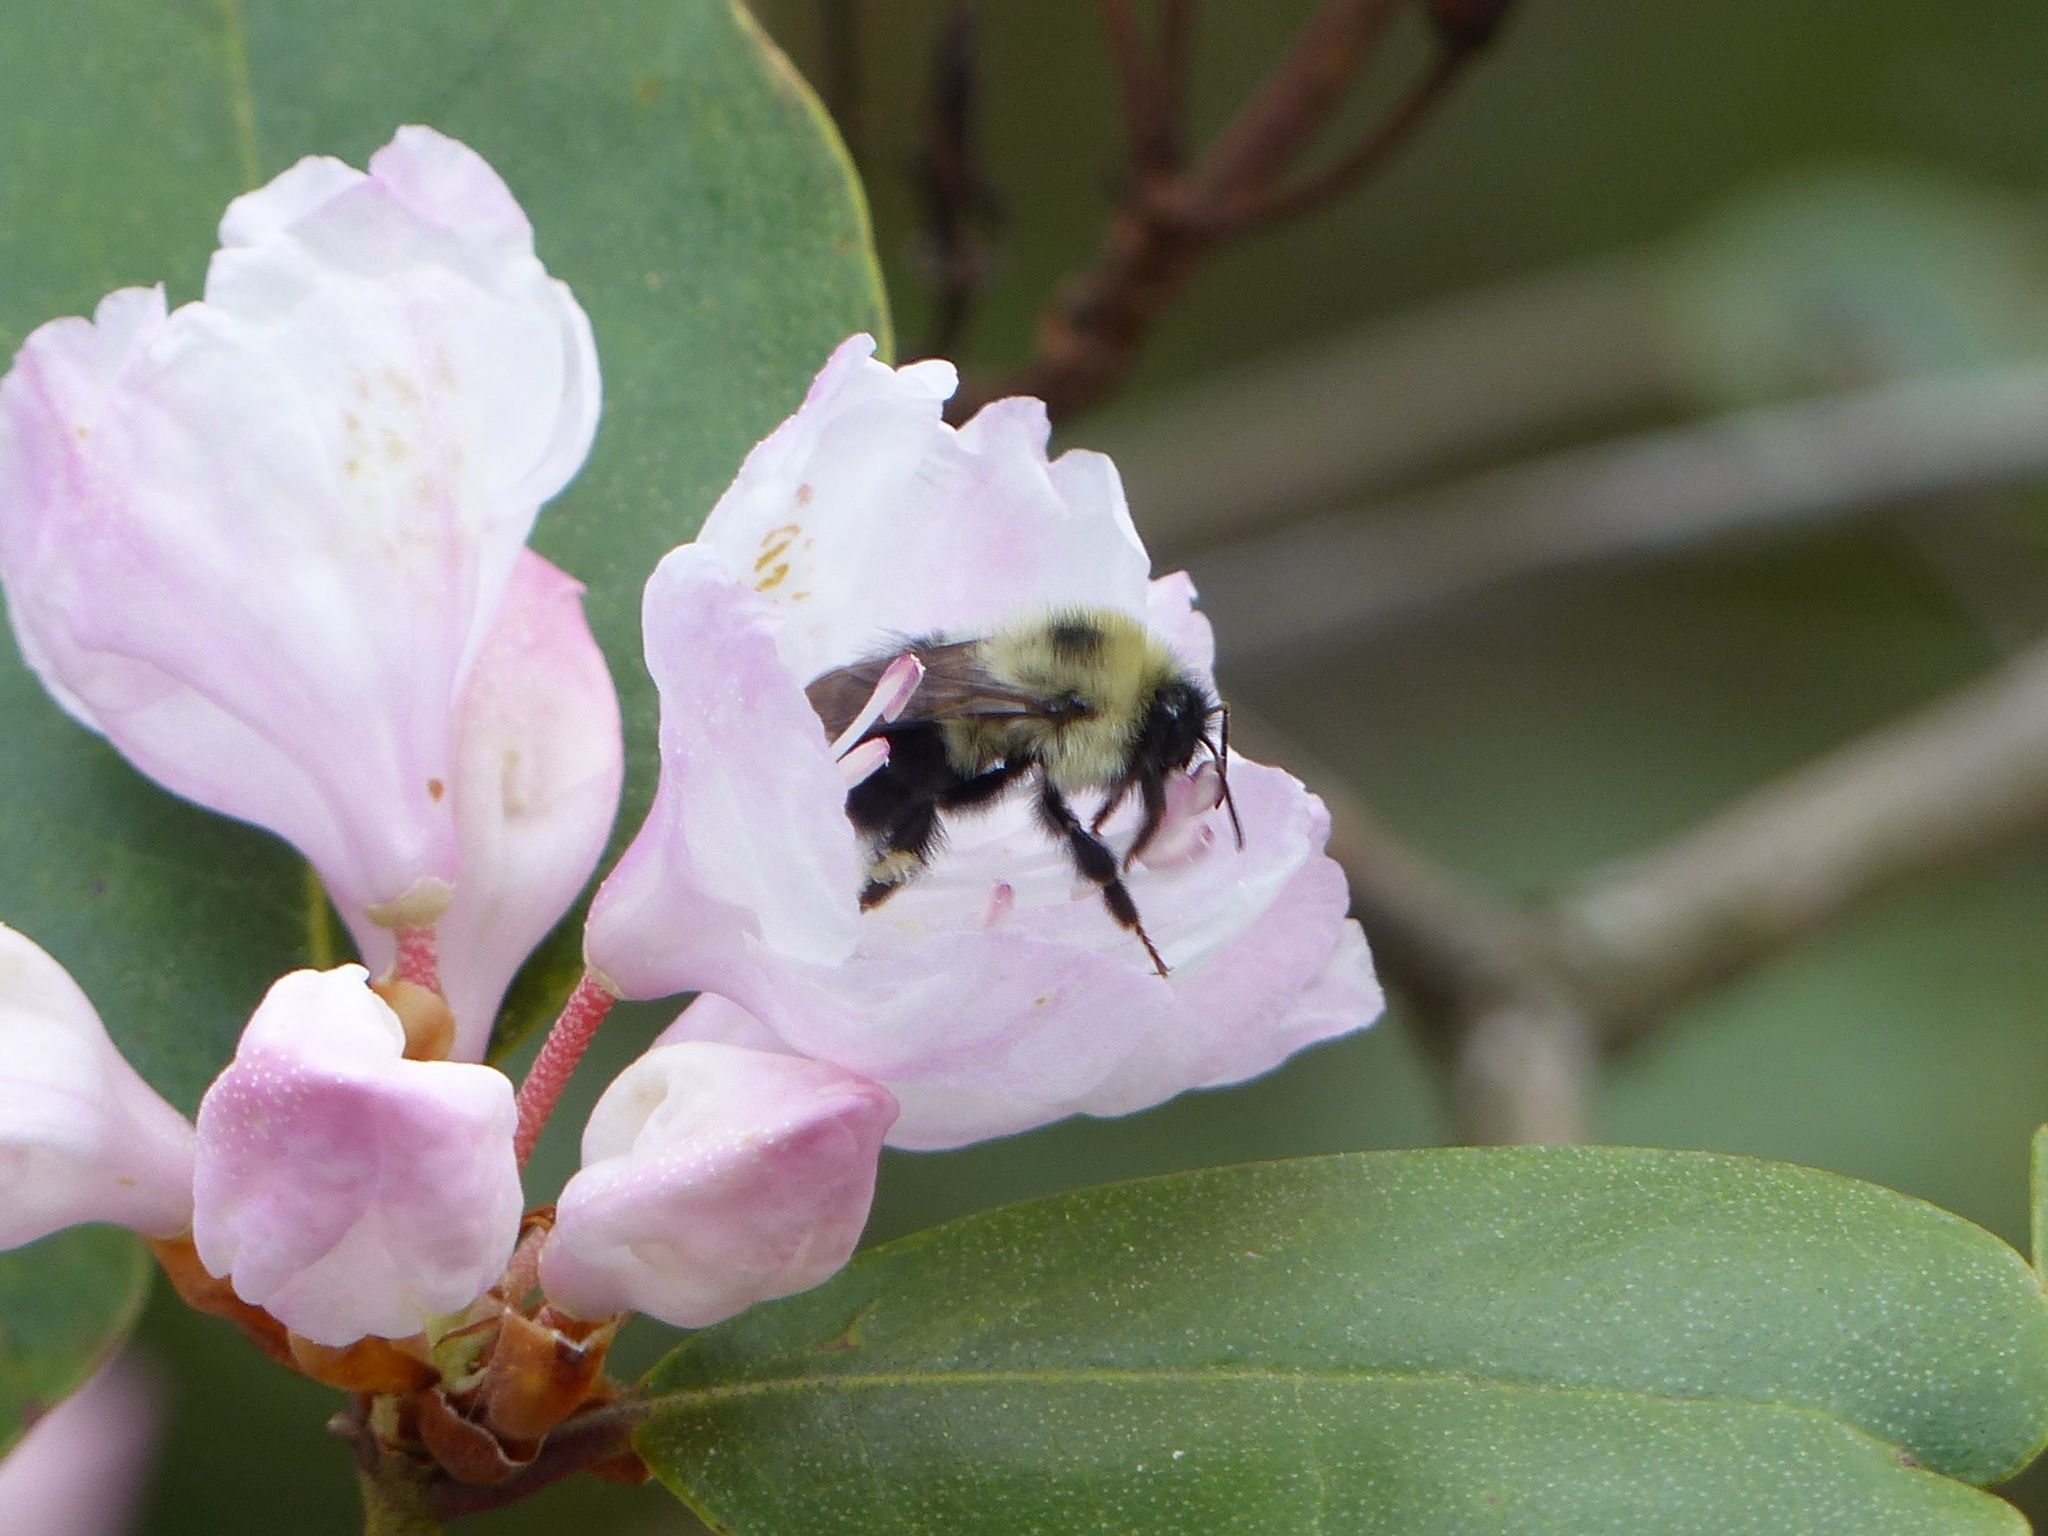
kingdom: Animalia
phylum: Arthropoda
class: Insecta
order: Hymenoptera
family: Apidae
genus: Bombus
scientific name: Bombus bimaculatus
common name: Two-spotted bumble bee
